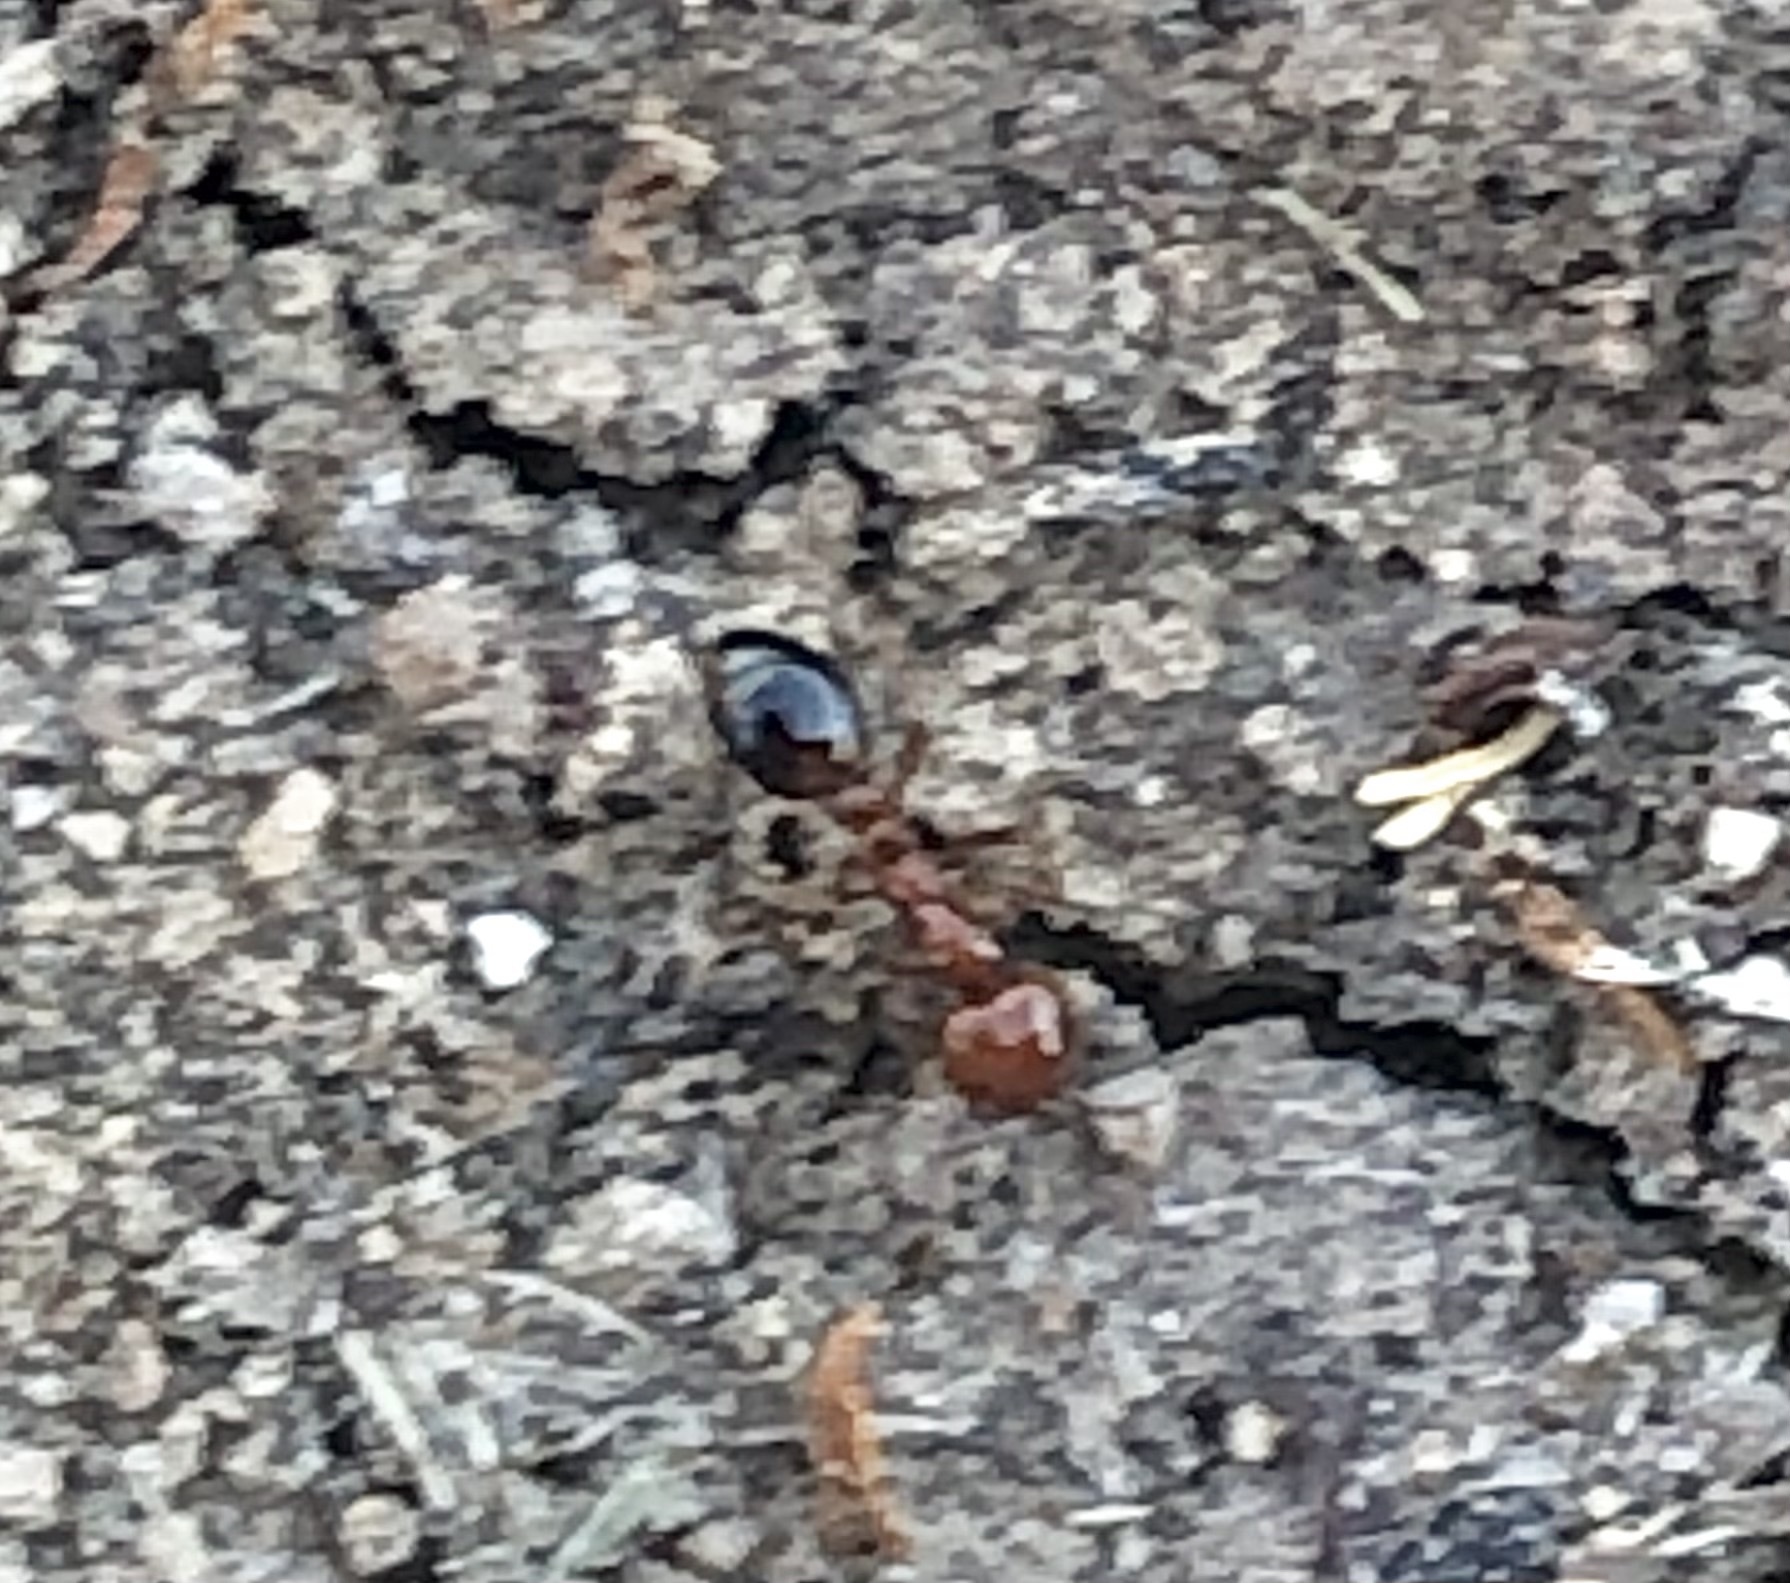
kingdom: Animalia
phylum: Arthropoda
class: Insecta
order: Hymenoptera
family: Formicidae
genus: Solenopsis
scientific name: Solenopsis xyloni
